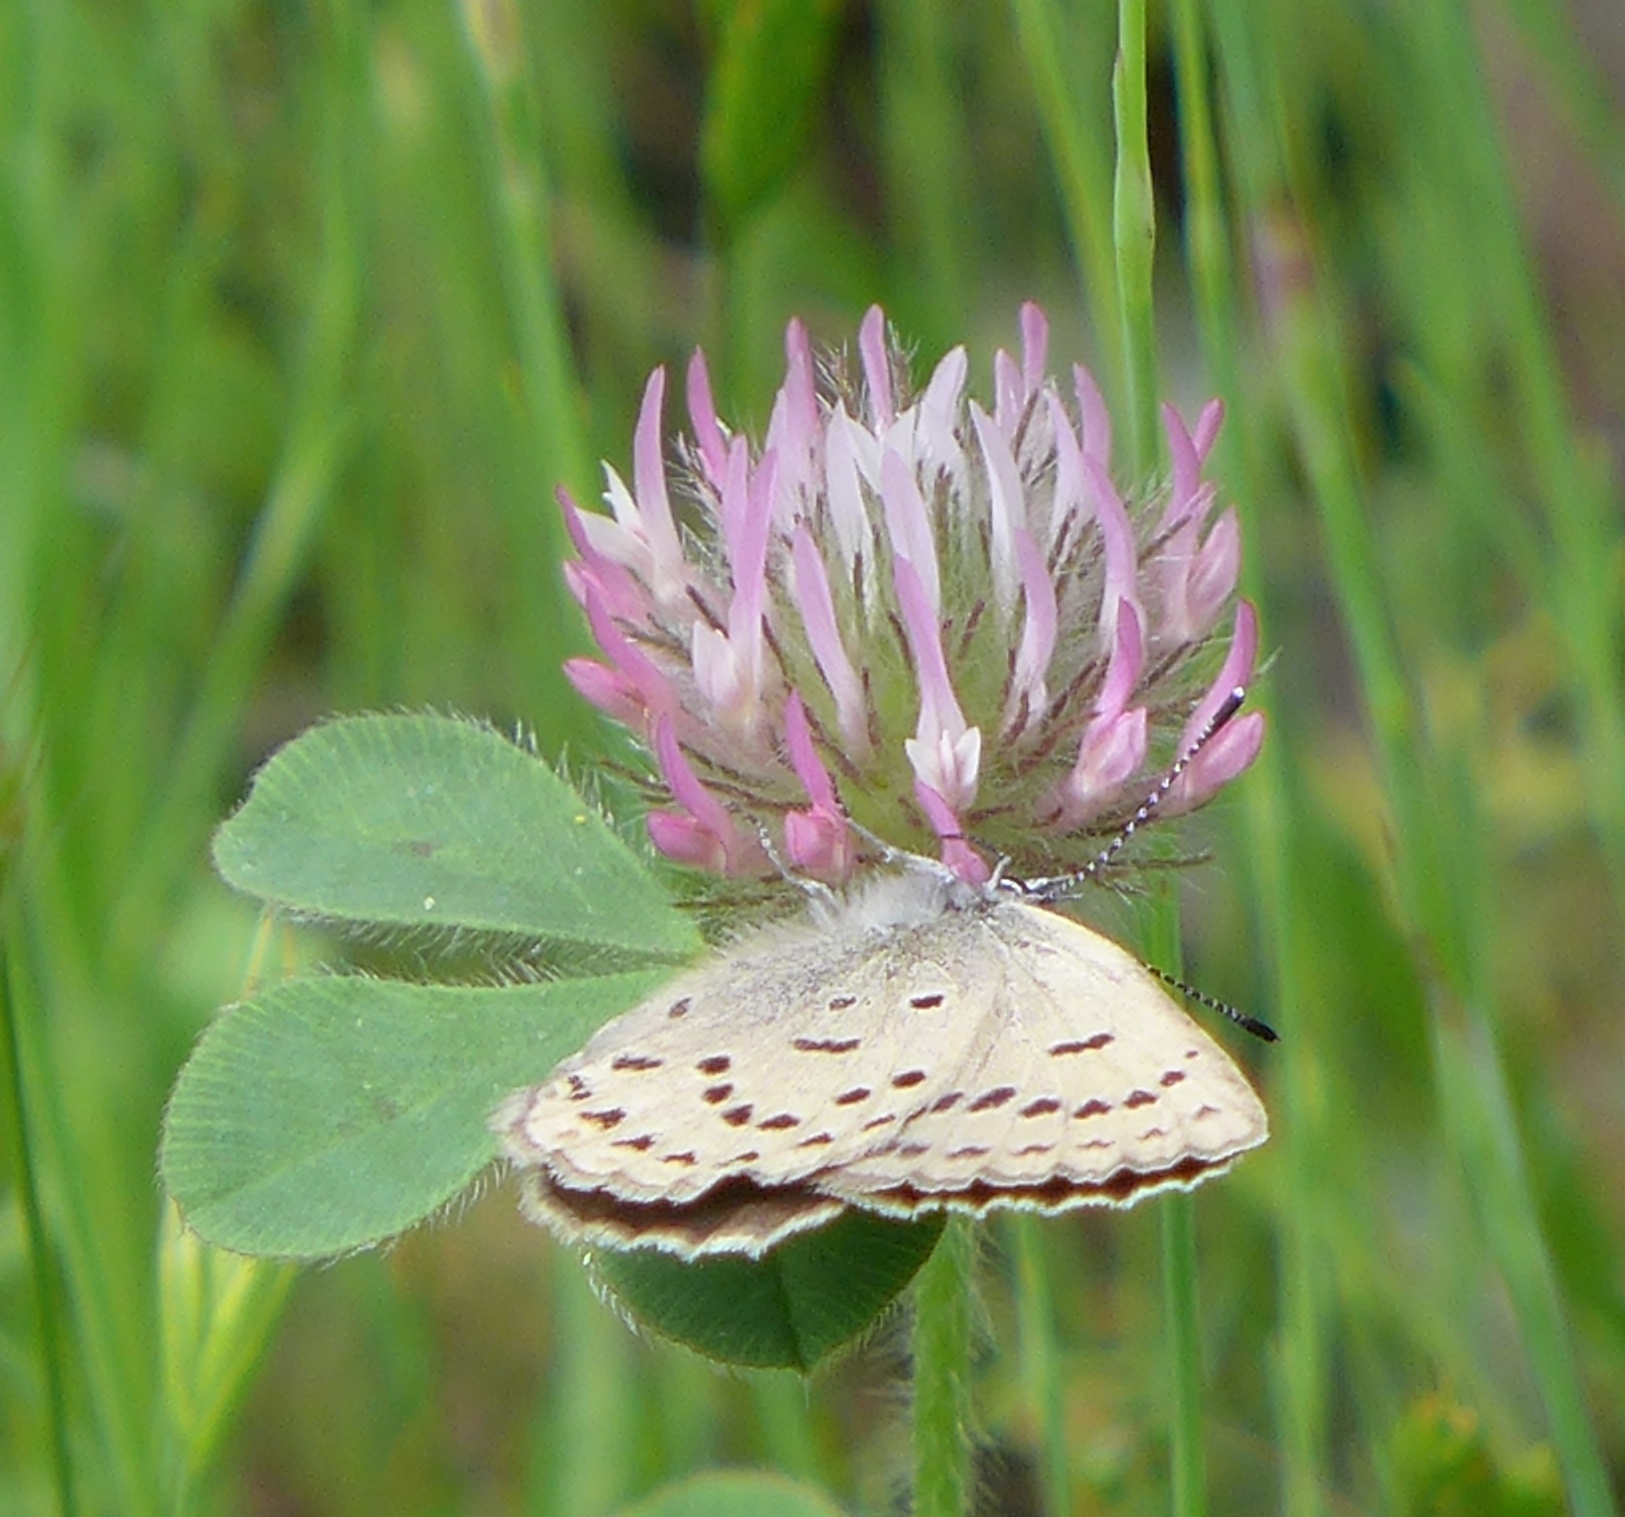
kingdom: Animalia
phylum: Arthropoda
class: Insecta
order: Lepidoptera
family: Lycaenidae
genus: Icaricia
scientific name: Icaricia icarioides
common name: Boisduval's blue
